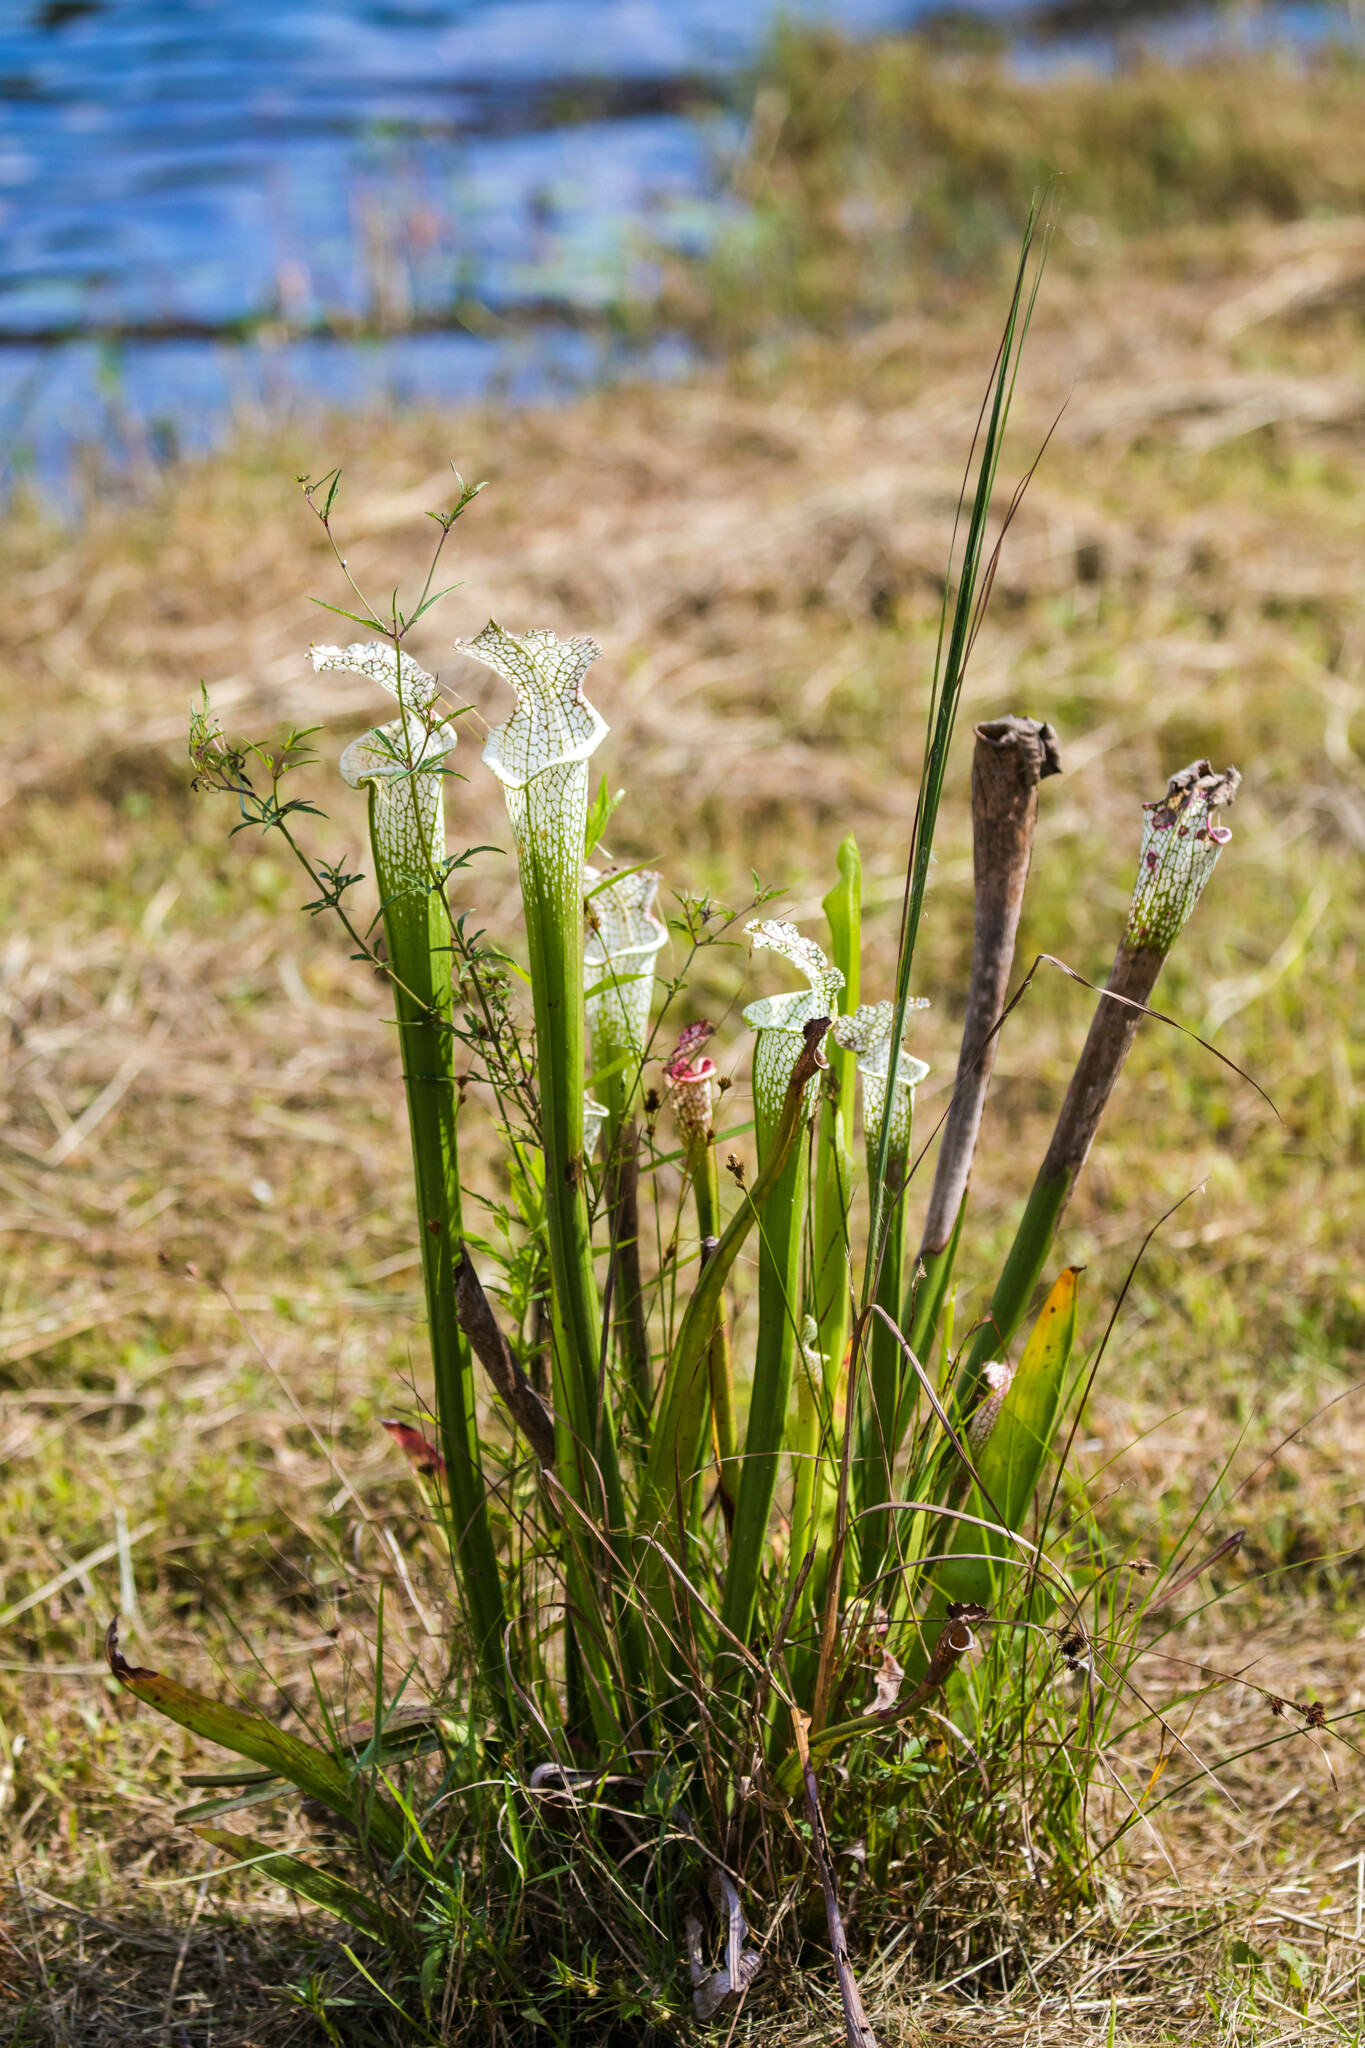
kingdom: Plantae
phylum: Tracheophyta
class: Magnoliopsida
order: Ericales
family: Sarraceniaceae
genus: Sarracenia
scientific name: Sarracenia leucophylla
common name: Purple trumpetleaf
